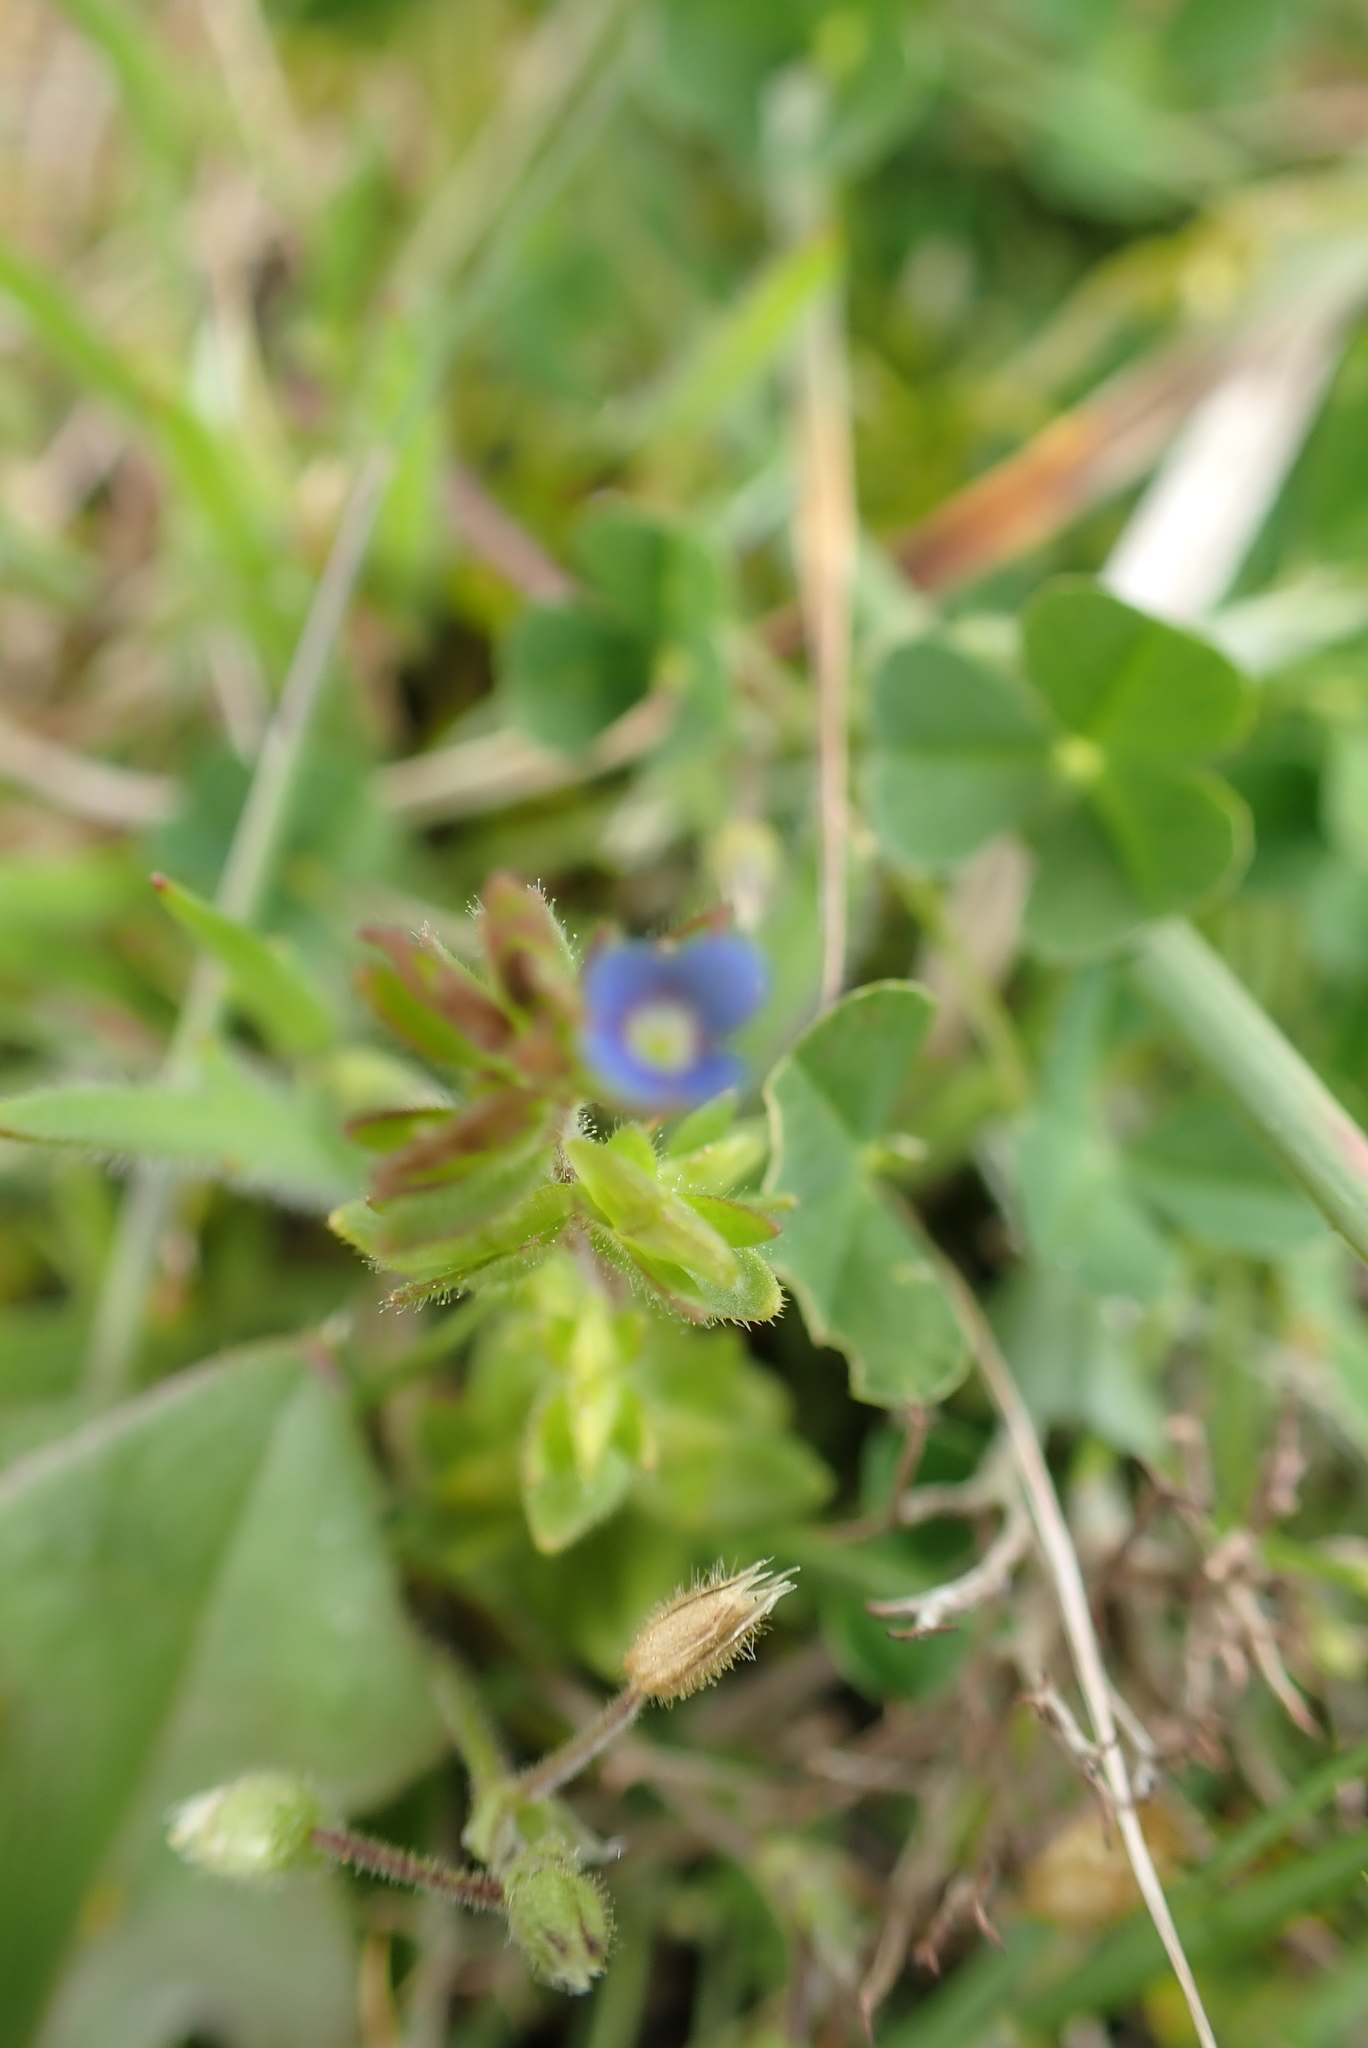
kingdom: Plantae
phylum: Tracheophyta
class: Magnoliopsida
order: Lamiales
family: Plantaginaceae
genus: Veronica
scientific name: Veronica arvensis
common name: Corn speedwell
